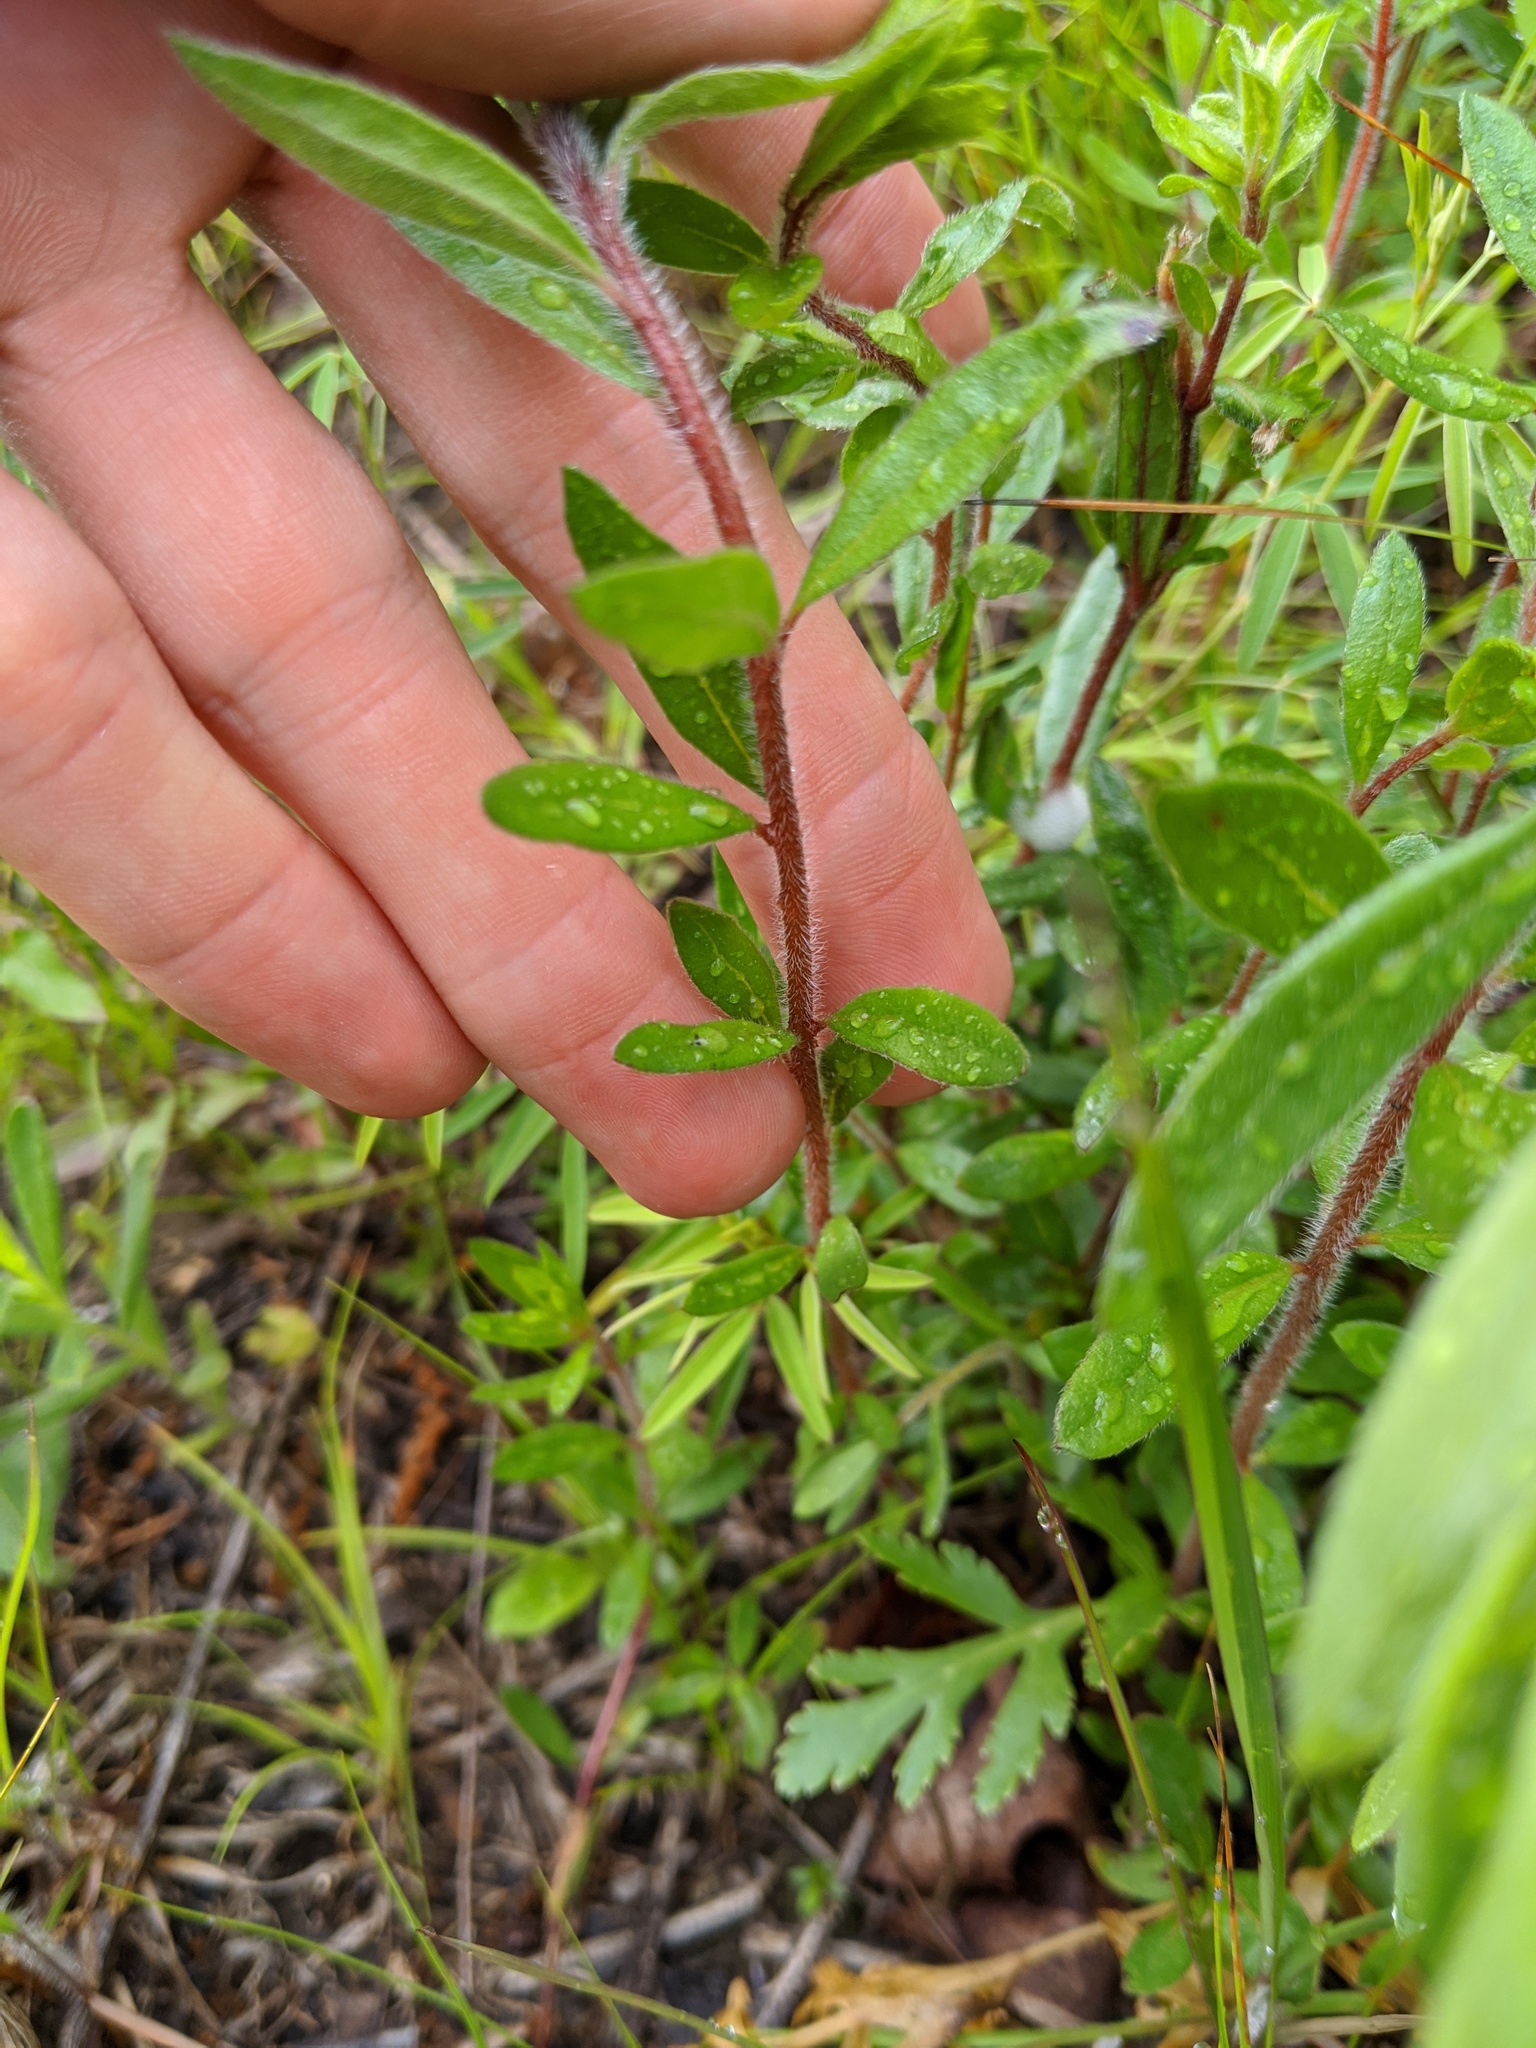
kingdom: Plantae
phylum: Tracheophyta
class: Magnoliopsida
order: Malvales
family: Cistaceae
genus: Lechea
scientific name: Lechea mucronata
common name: Hairy pinweed
